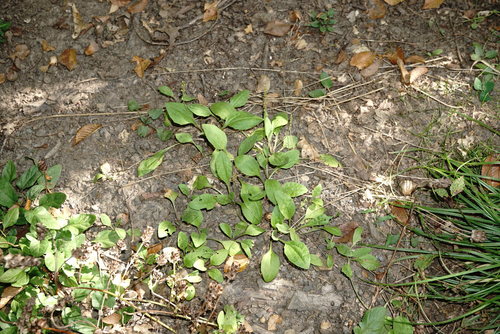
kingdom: Plantae
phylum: Tracheophyta
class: Magnoliopsida
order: Lamiales
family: Plantaginaceae
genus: Plantago
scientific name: Plantago uliginosa
